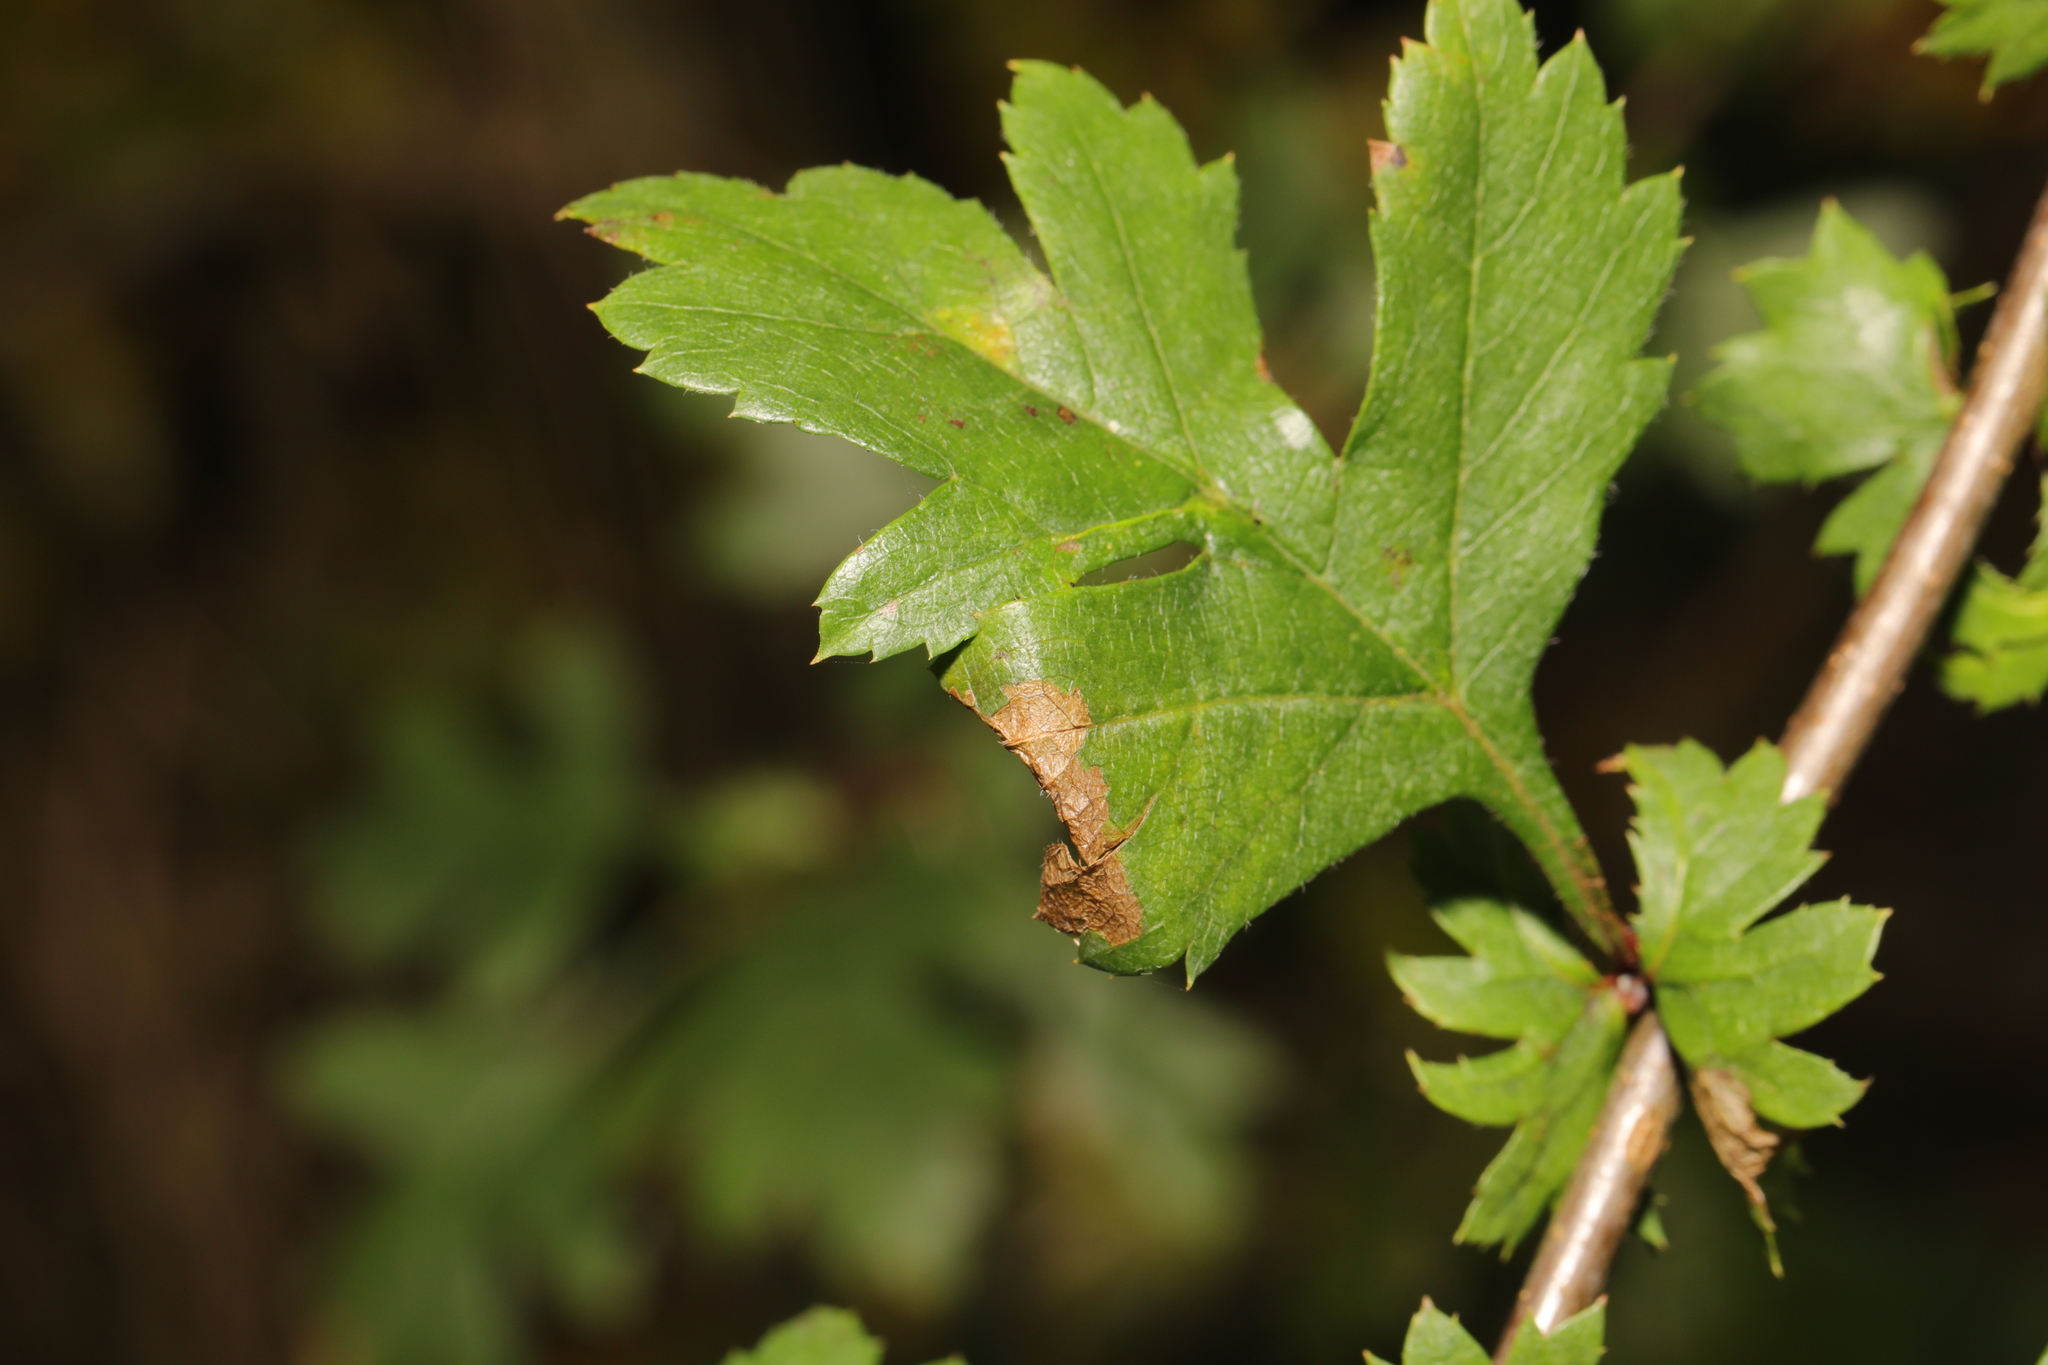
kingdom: Animalia
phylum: Arthropoda
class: Insecta
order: Lepidoptera
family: Gracillariidae
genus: Parornix
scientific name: Parornix anglicella
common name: Hawthorn slender
